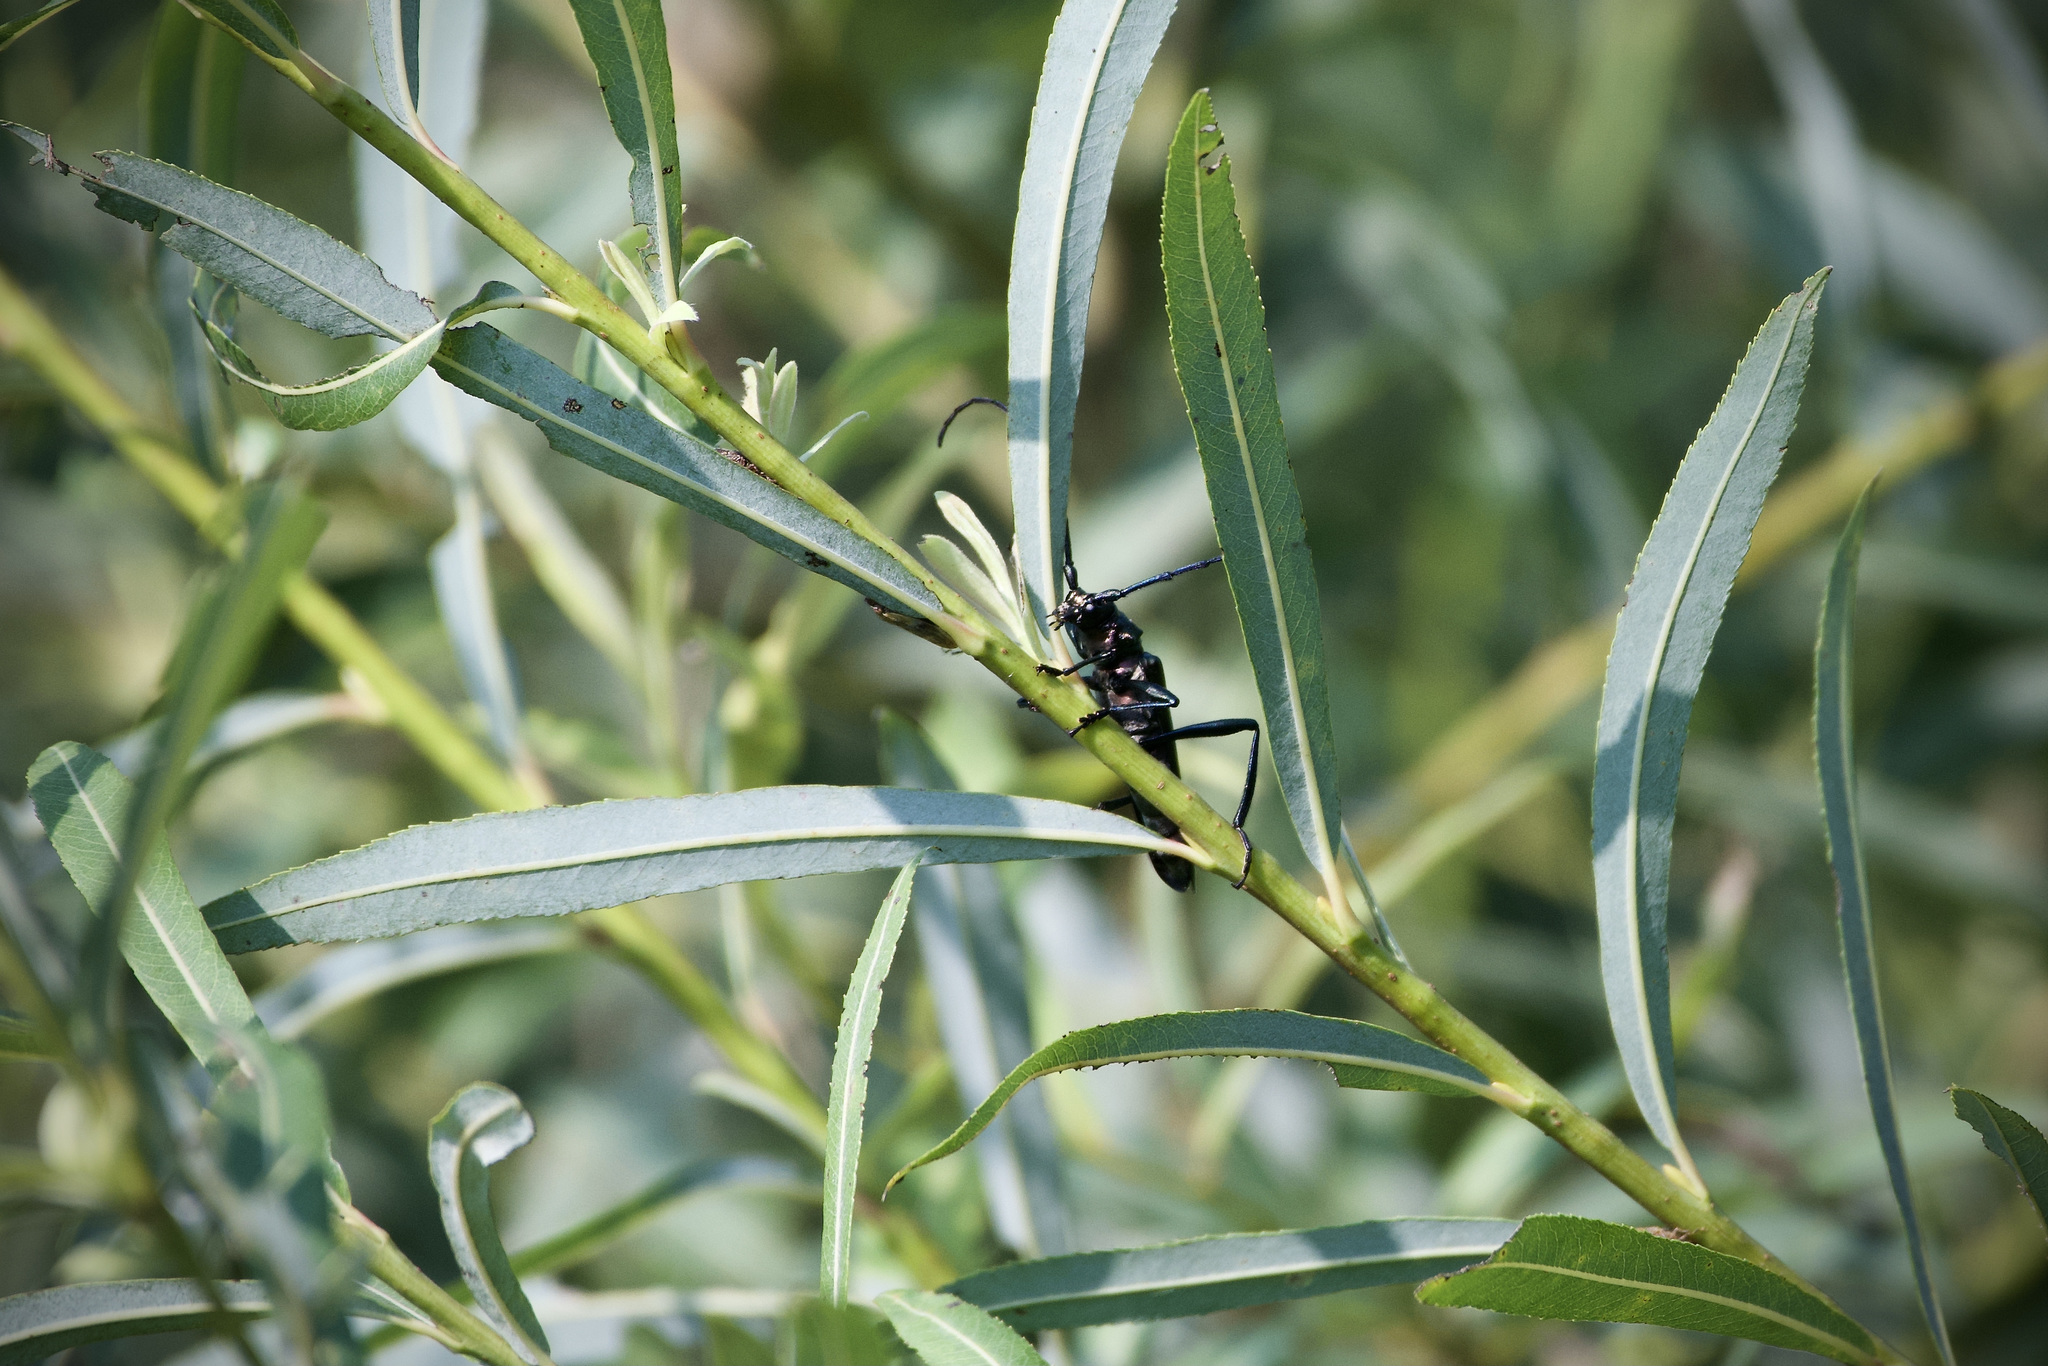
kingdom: Animalia
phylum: Arthropoda
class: Insecta
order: Coleoptera
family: Cerambycidae
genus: Aromia
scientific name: Aromia moschata
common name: Musk beetle
